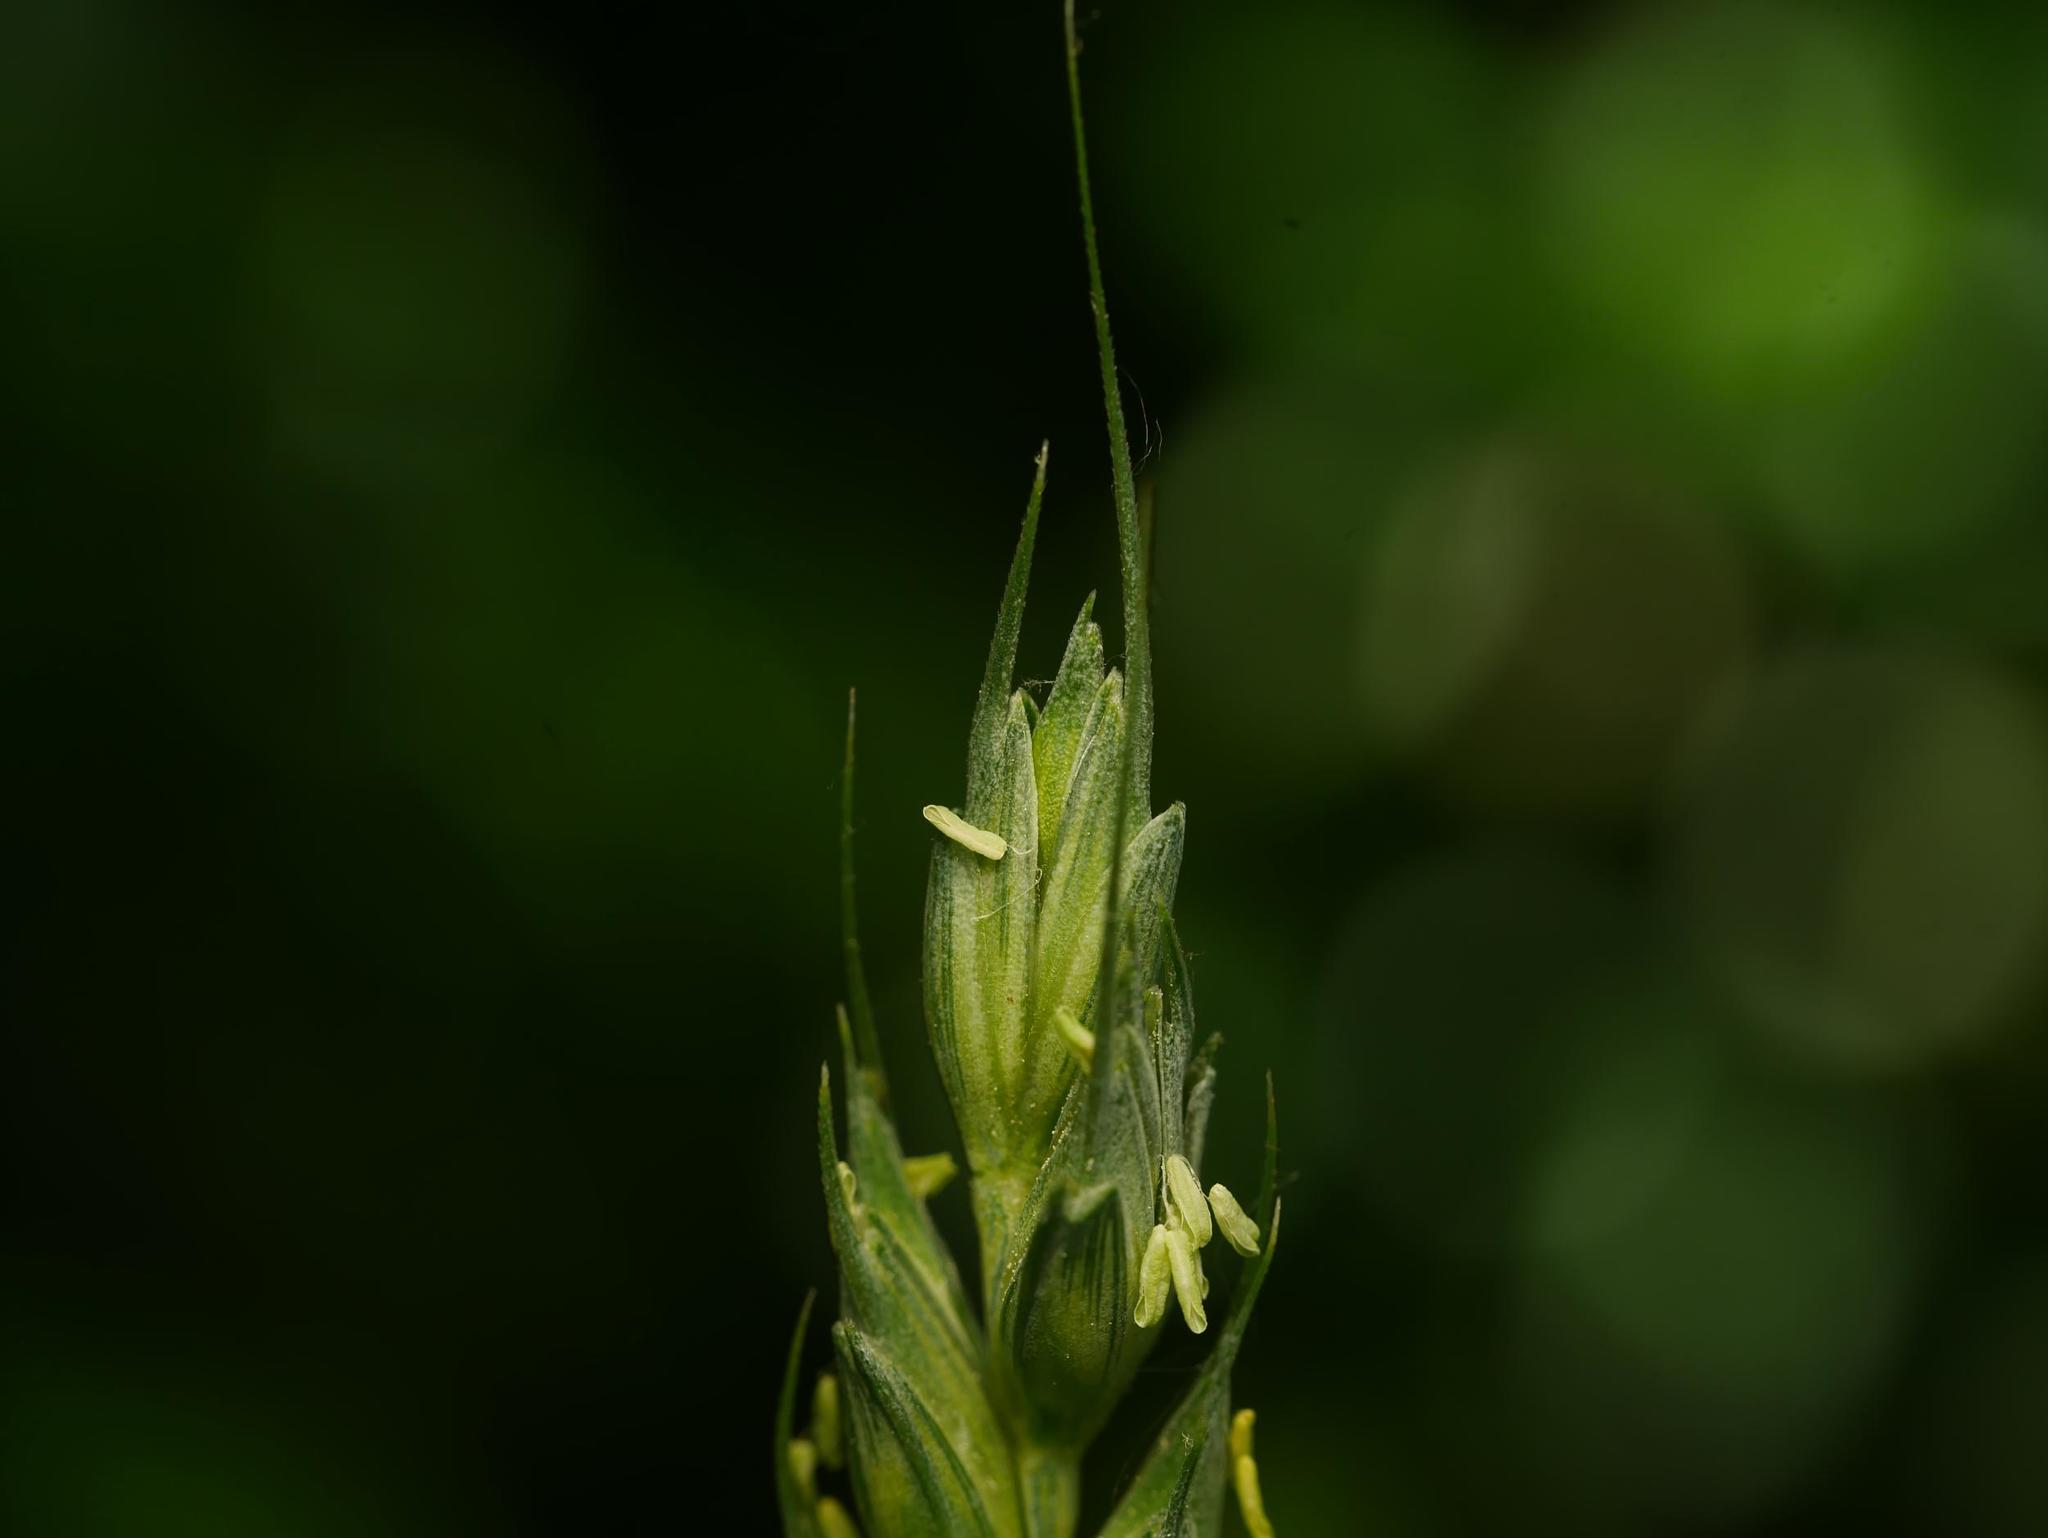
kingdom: Plantae
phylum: Tracheophyta
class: Liliopsida
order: Poales
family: Poaceae
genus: Triticum
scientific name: Triticum aestivum
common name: Common wheat
